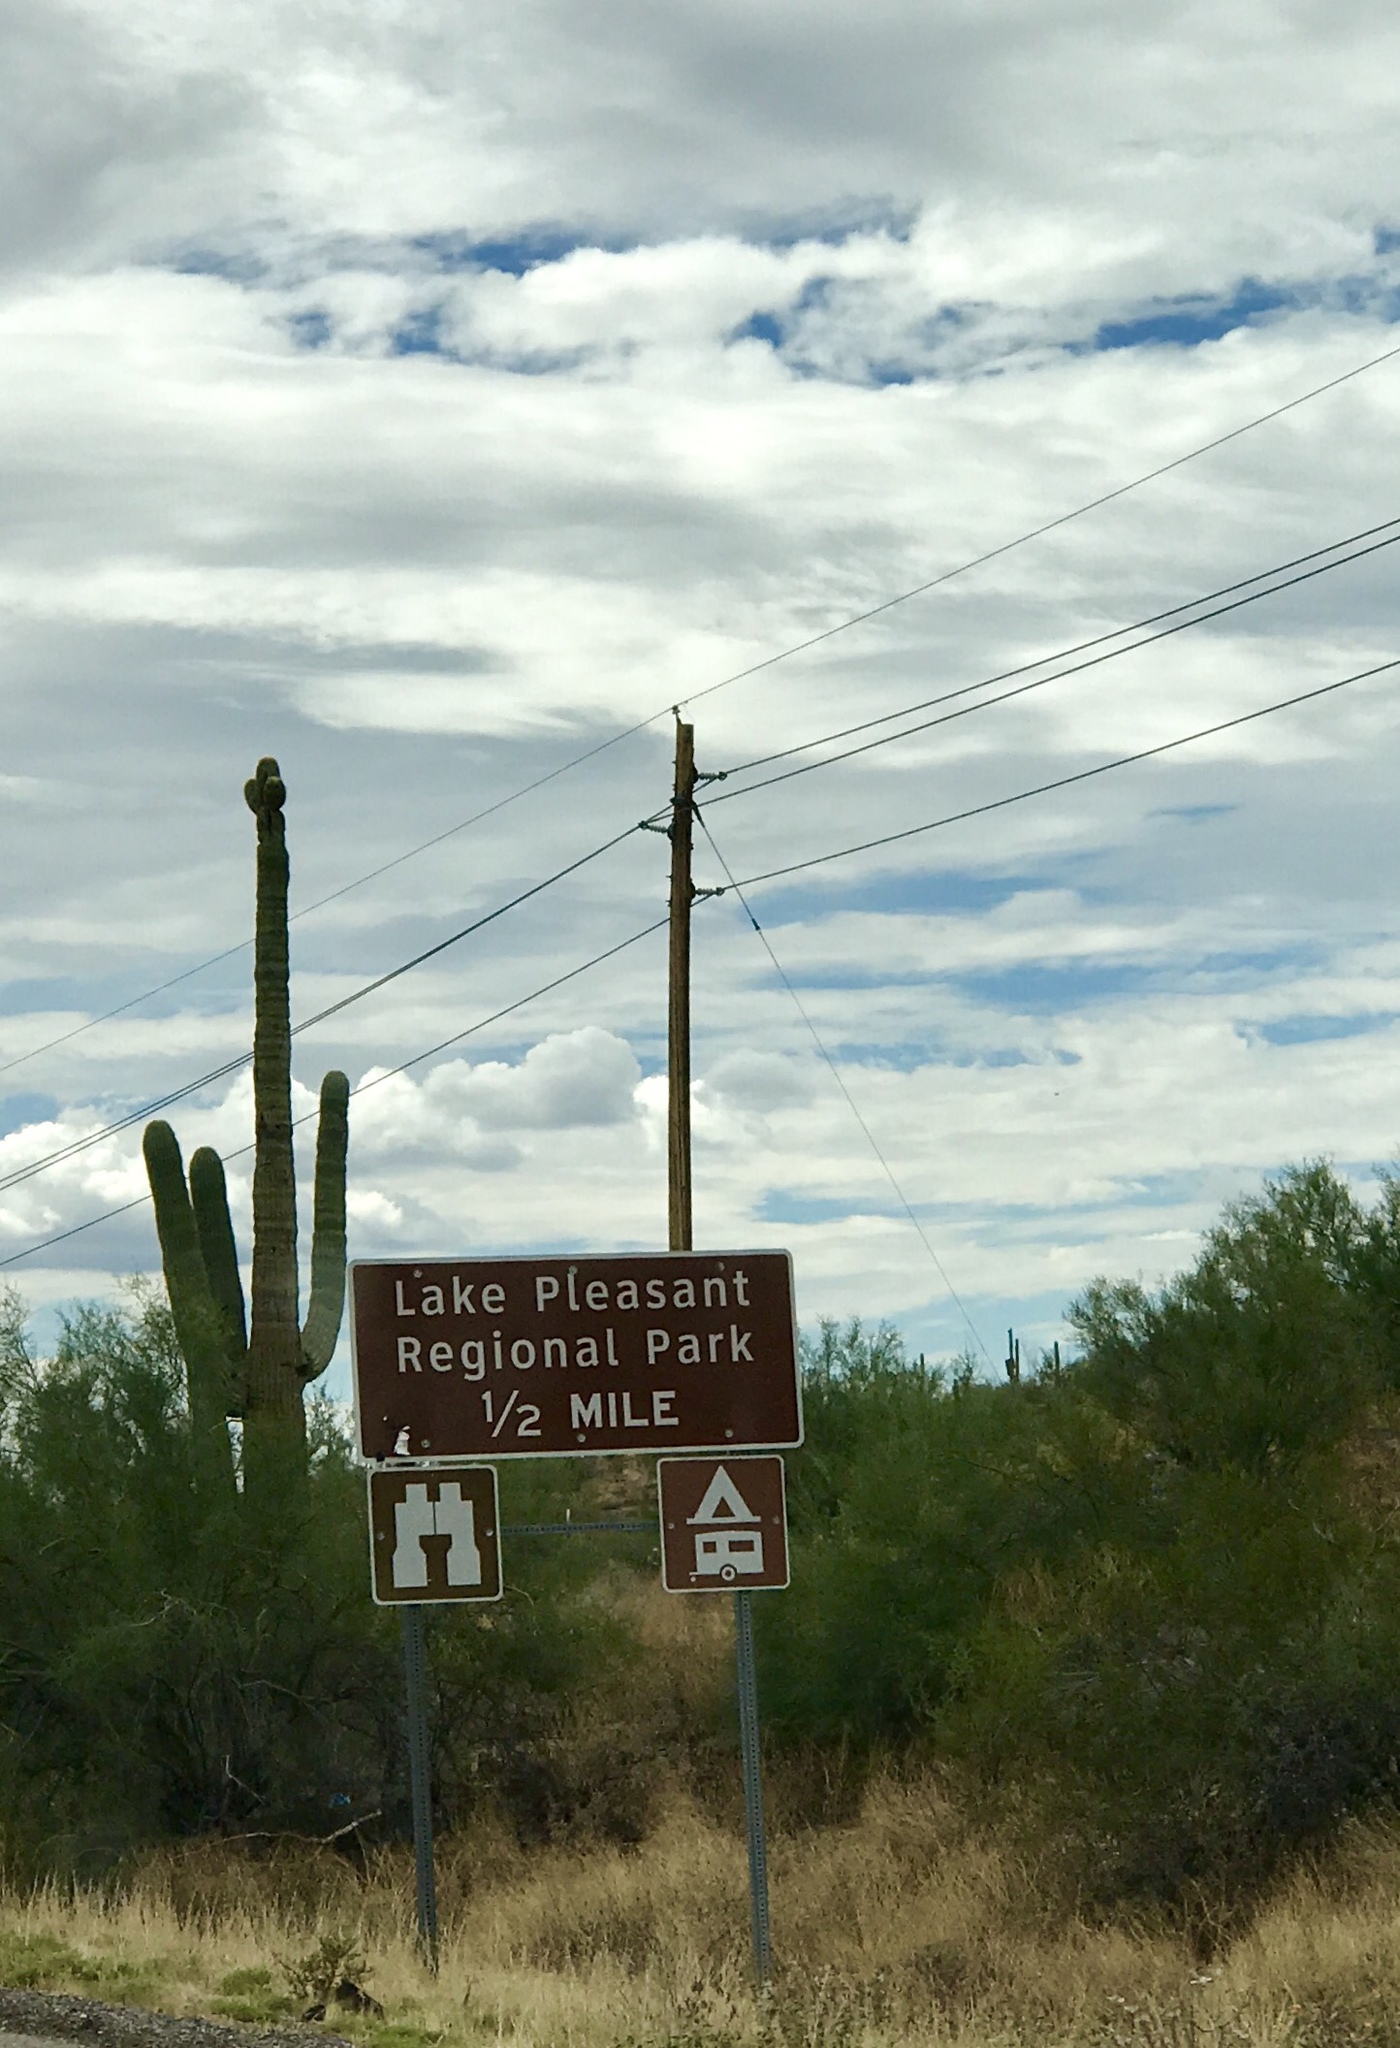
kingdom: Plantae
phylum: Tracheophyta
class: Magnoliopsida
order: Caryophyllales
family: Cactaceae
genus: Carnegiea
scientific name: Carnegiea gigantea
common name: Saguaro
